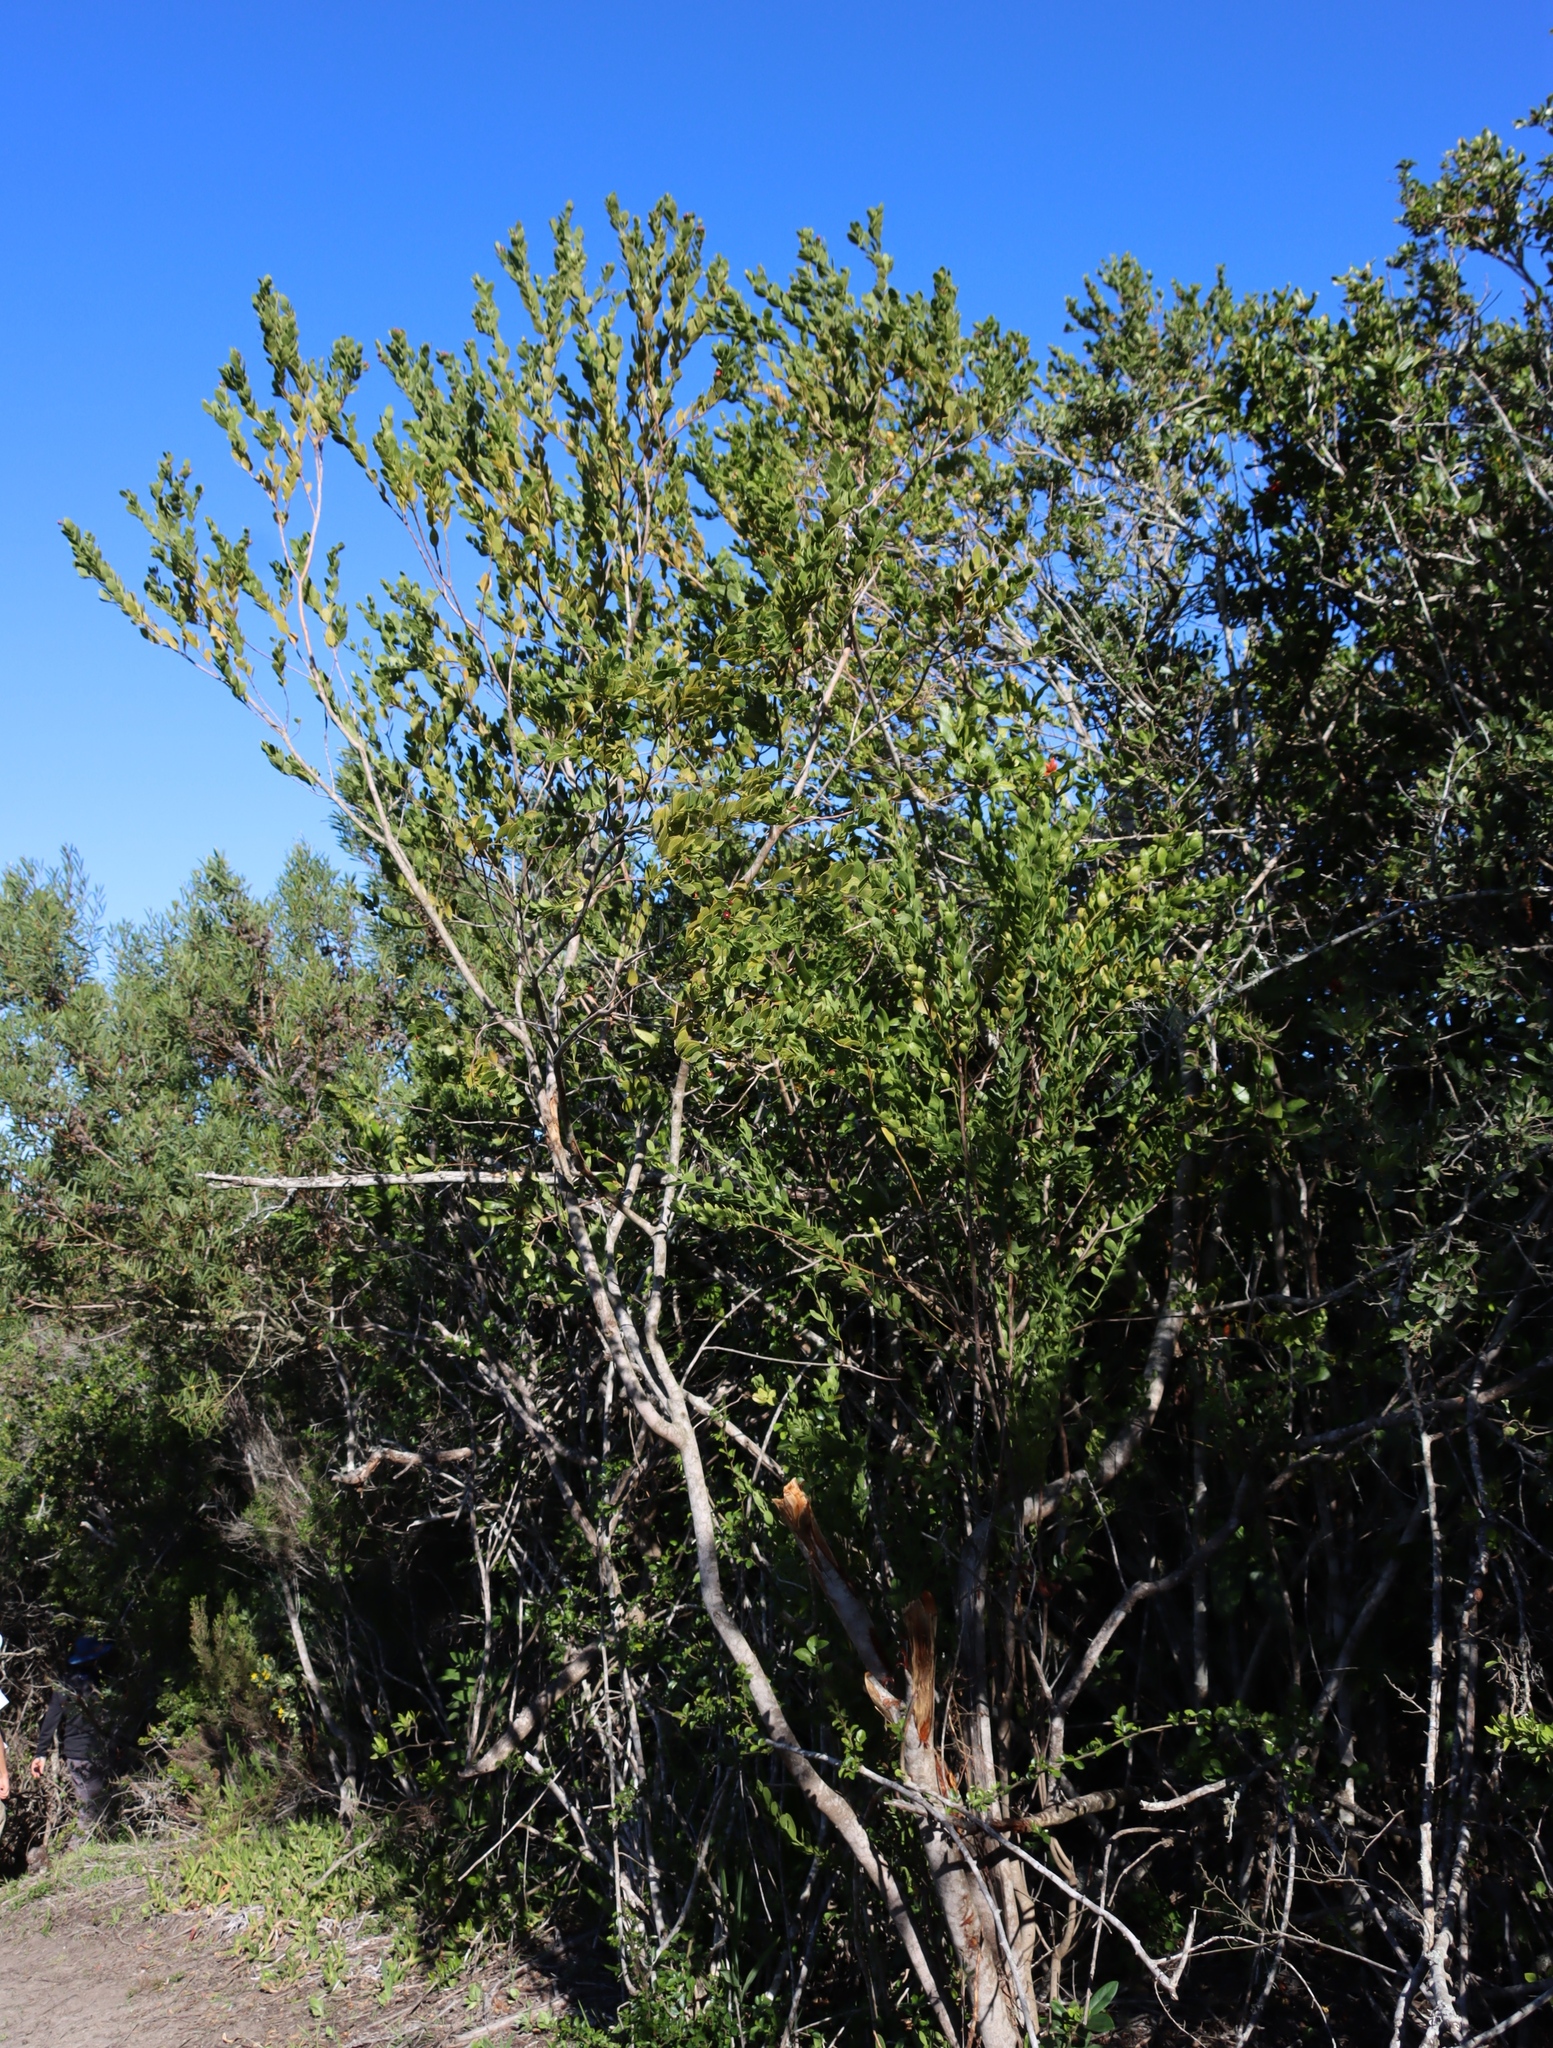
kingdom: Plantae
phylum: Tracheophyta
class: Magnoliopsida
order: Santalales
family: Santalaceae
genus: Osyris
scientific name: Osyris compressa
